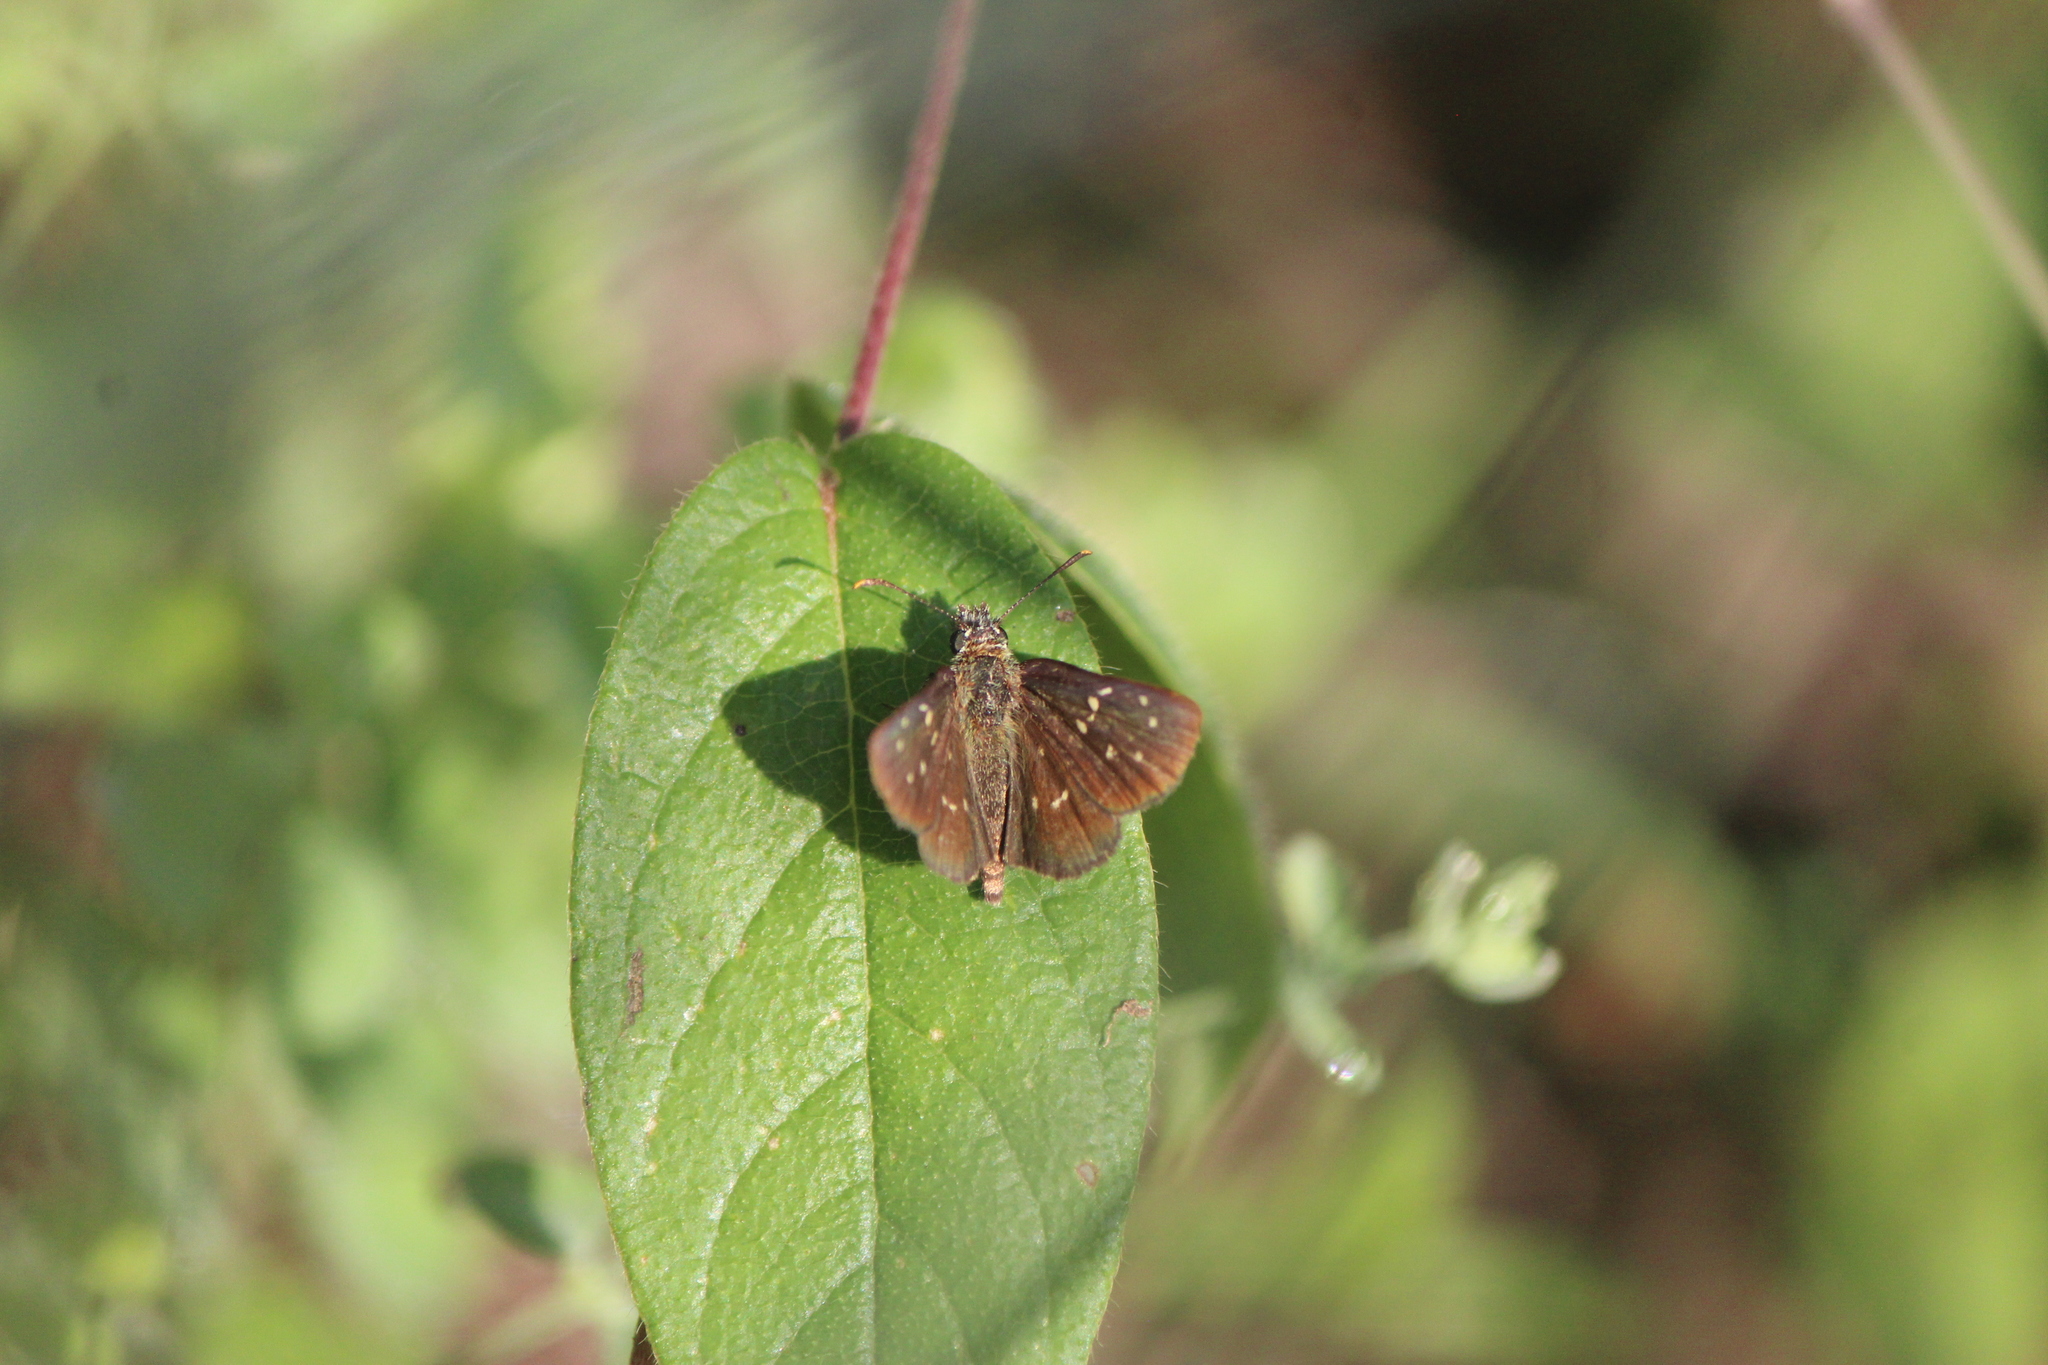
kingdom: Animalia
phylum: Arthropoda
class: Insecta
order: Lepidoptera
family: Hesperiidae
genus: Piruna
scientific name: Piruna aea
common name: Many-spotted skipperling
